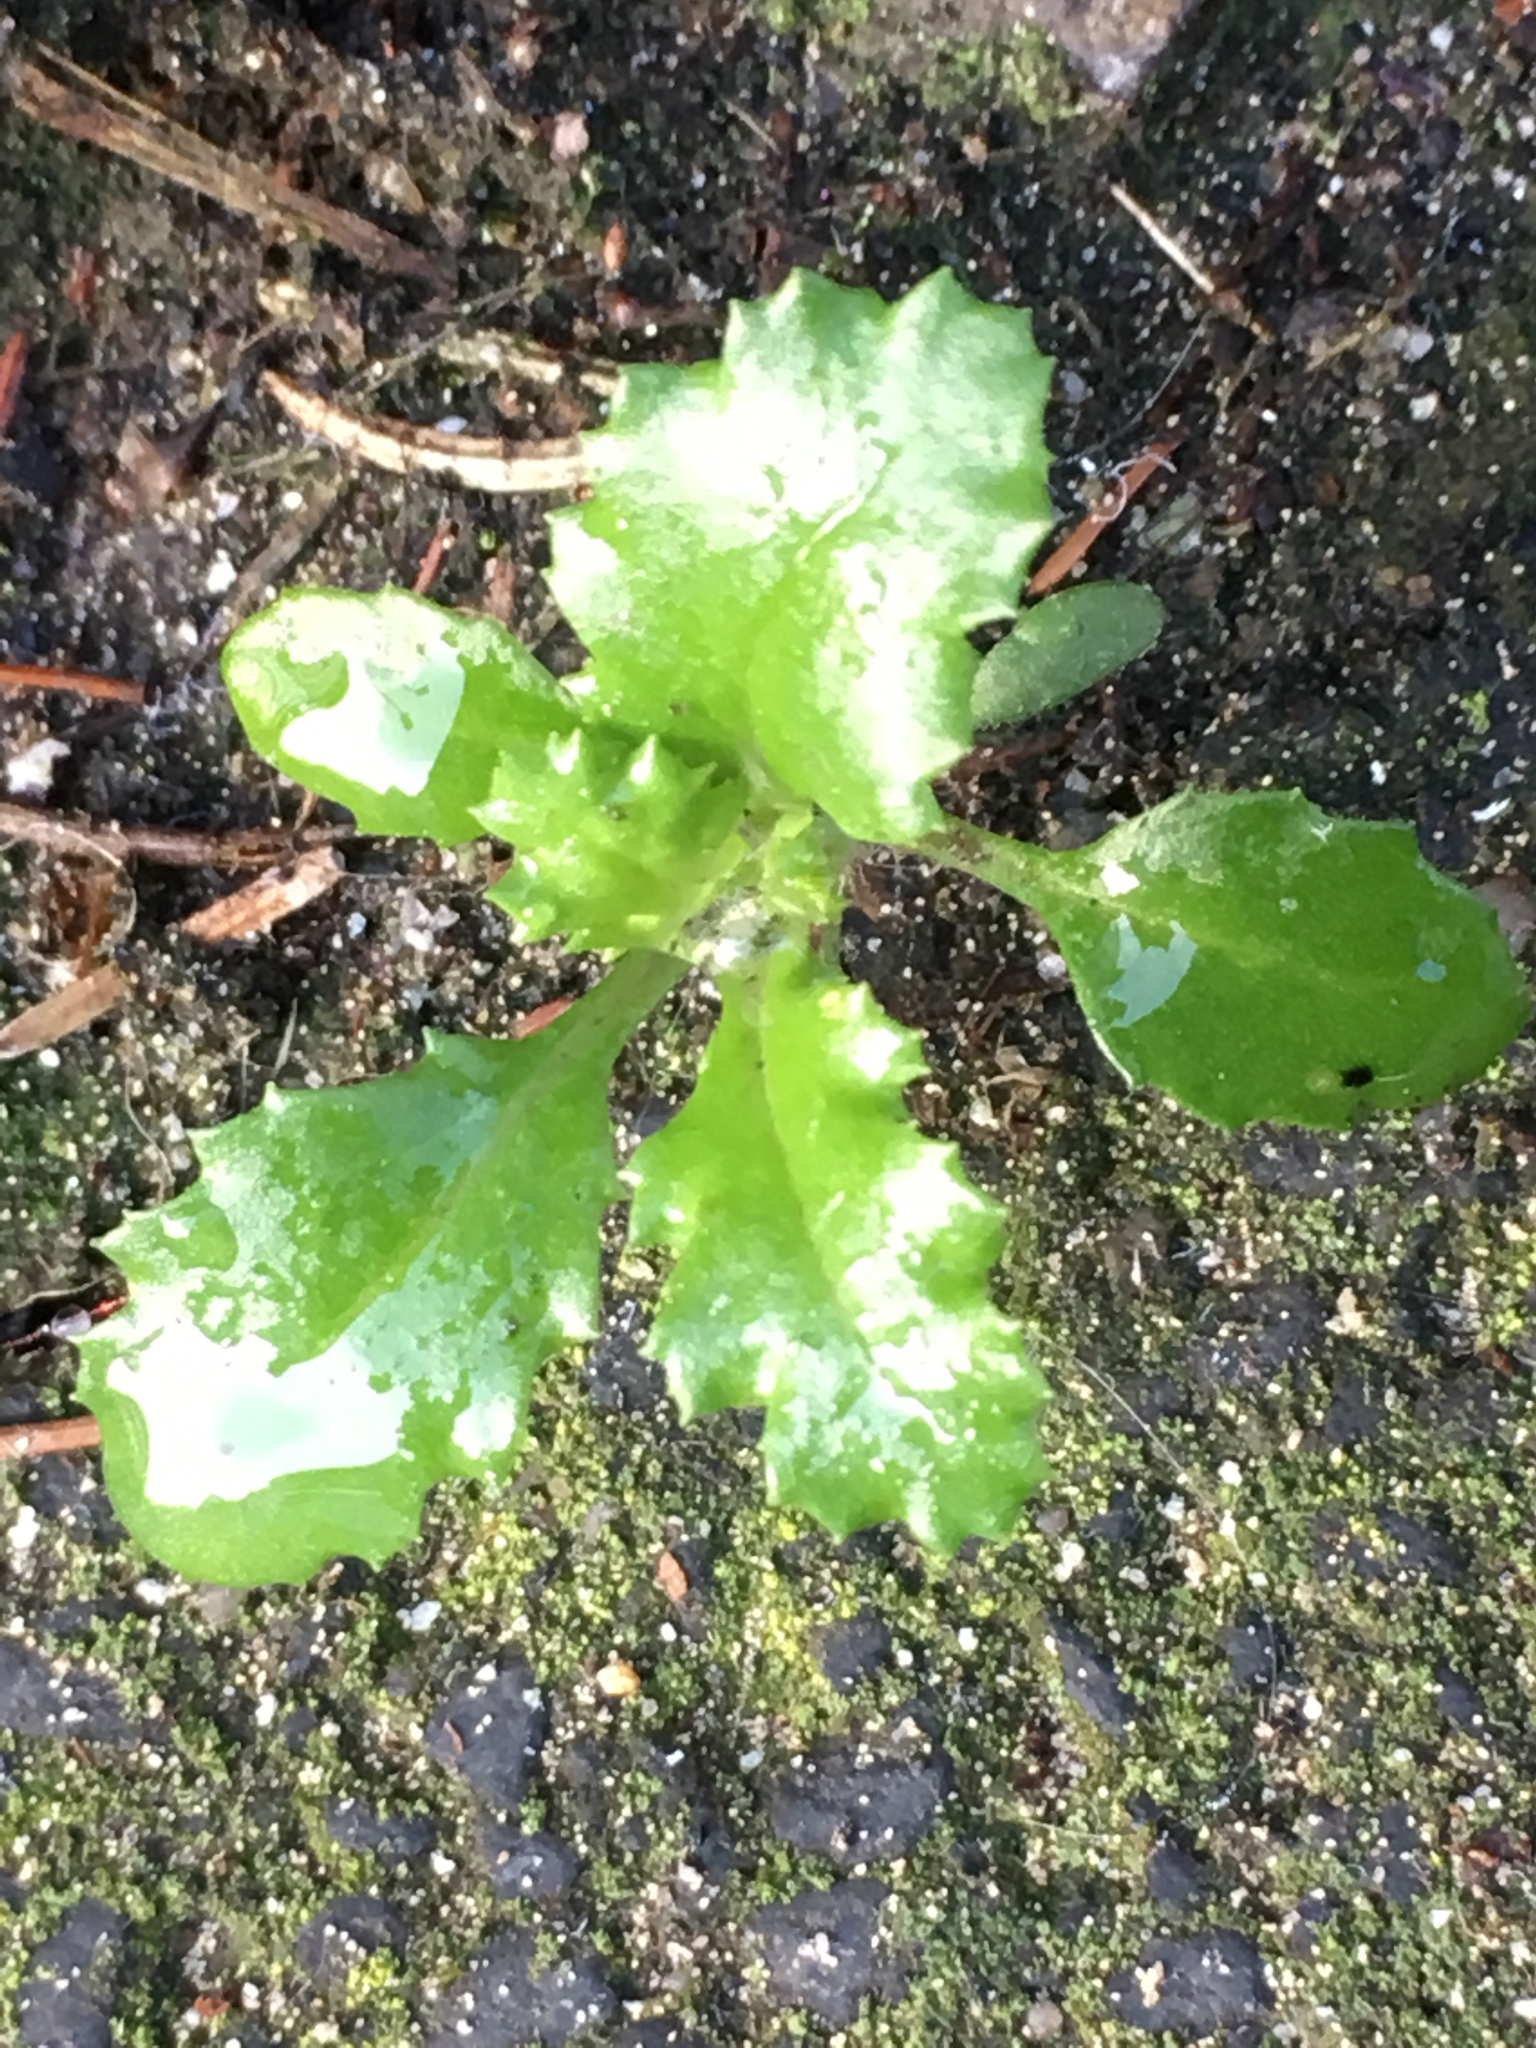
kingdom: Plantae
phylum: Tracheophyta
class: Magnoliopsida
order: Asterales
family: Asteraceae
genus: Senecio
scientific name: Senecio vulgaris
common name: Old-man-in-the-spring
